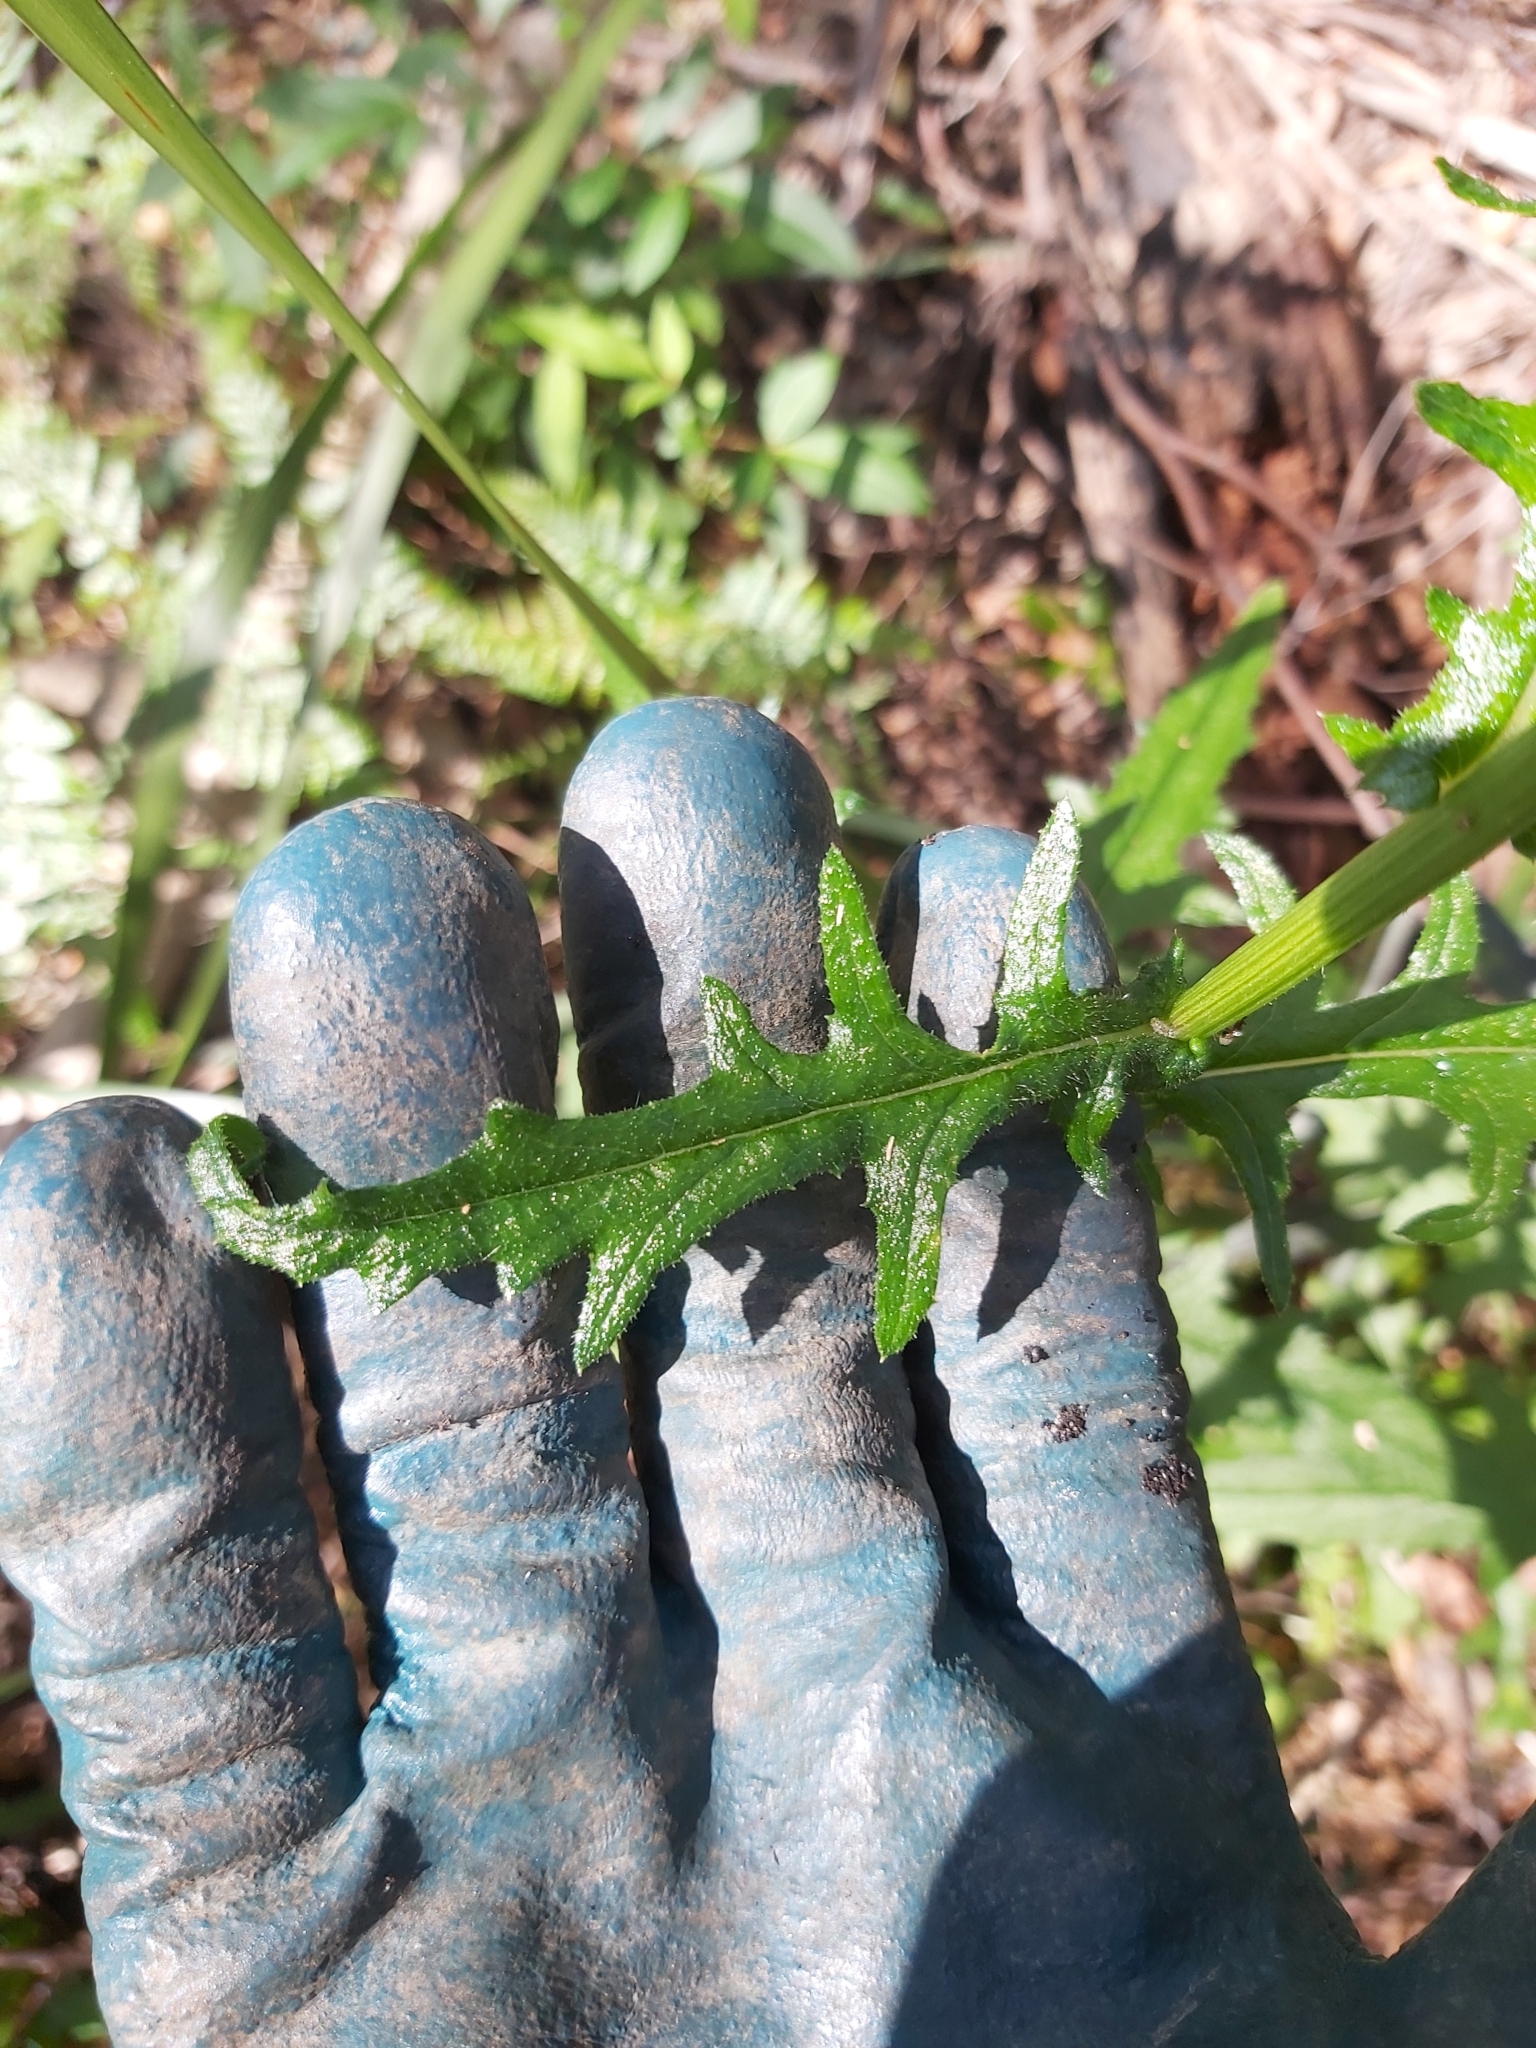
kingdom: Plantae
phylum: Tracheophyta
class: Magnoliopsida
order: Asterales
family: Asteraceae
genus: Senecio
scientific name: Senecio hispidulus
